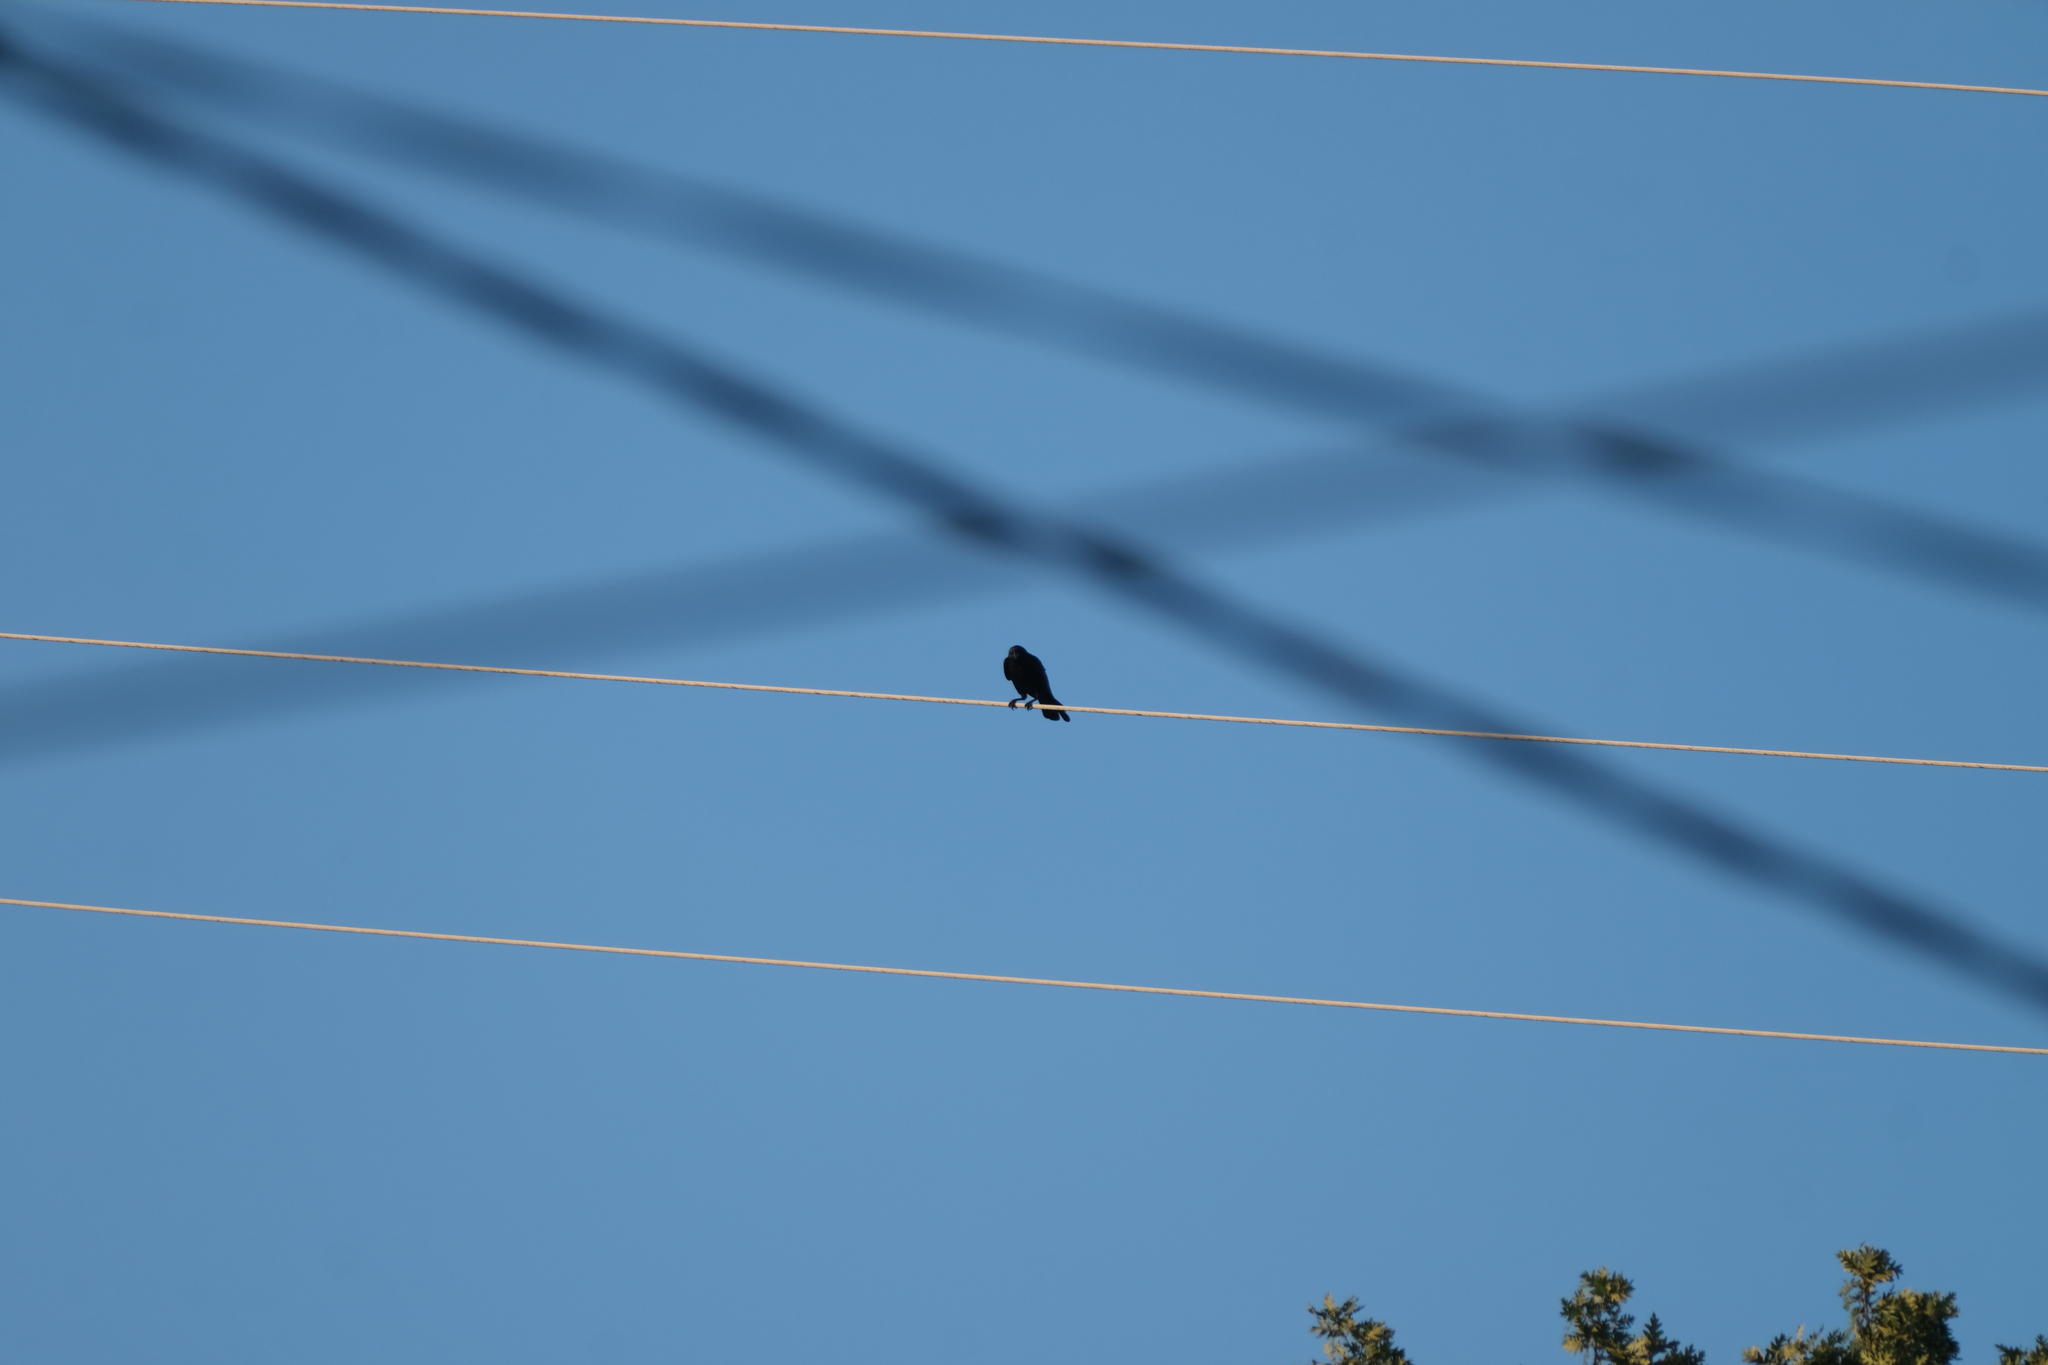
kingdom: Animalia
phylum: Chordata
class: Aves
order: Passeriformes
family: Corvidae
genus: Corvus
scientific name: Corvus corone
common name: Carrion crow
